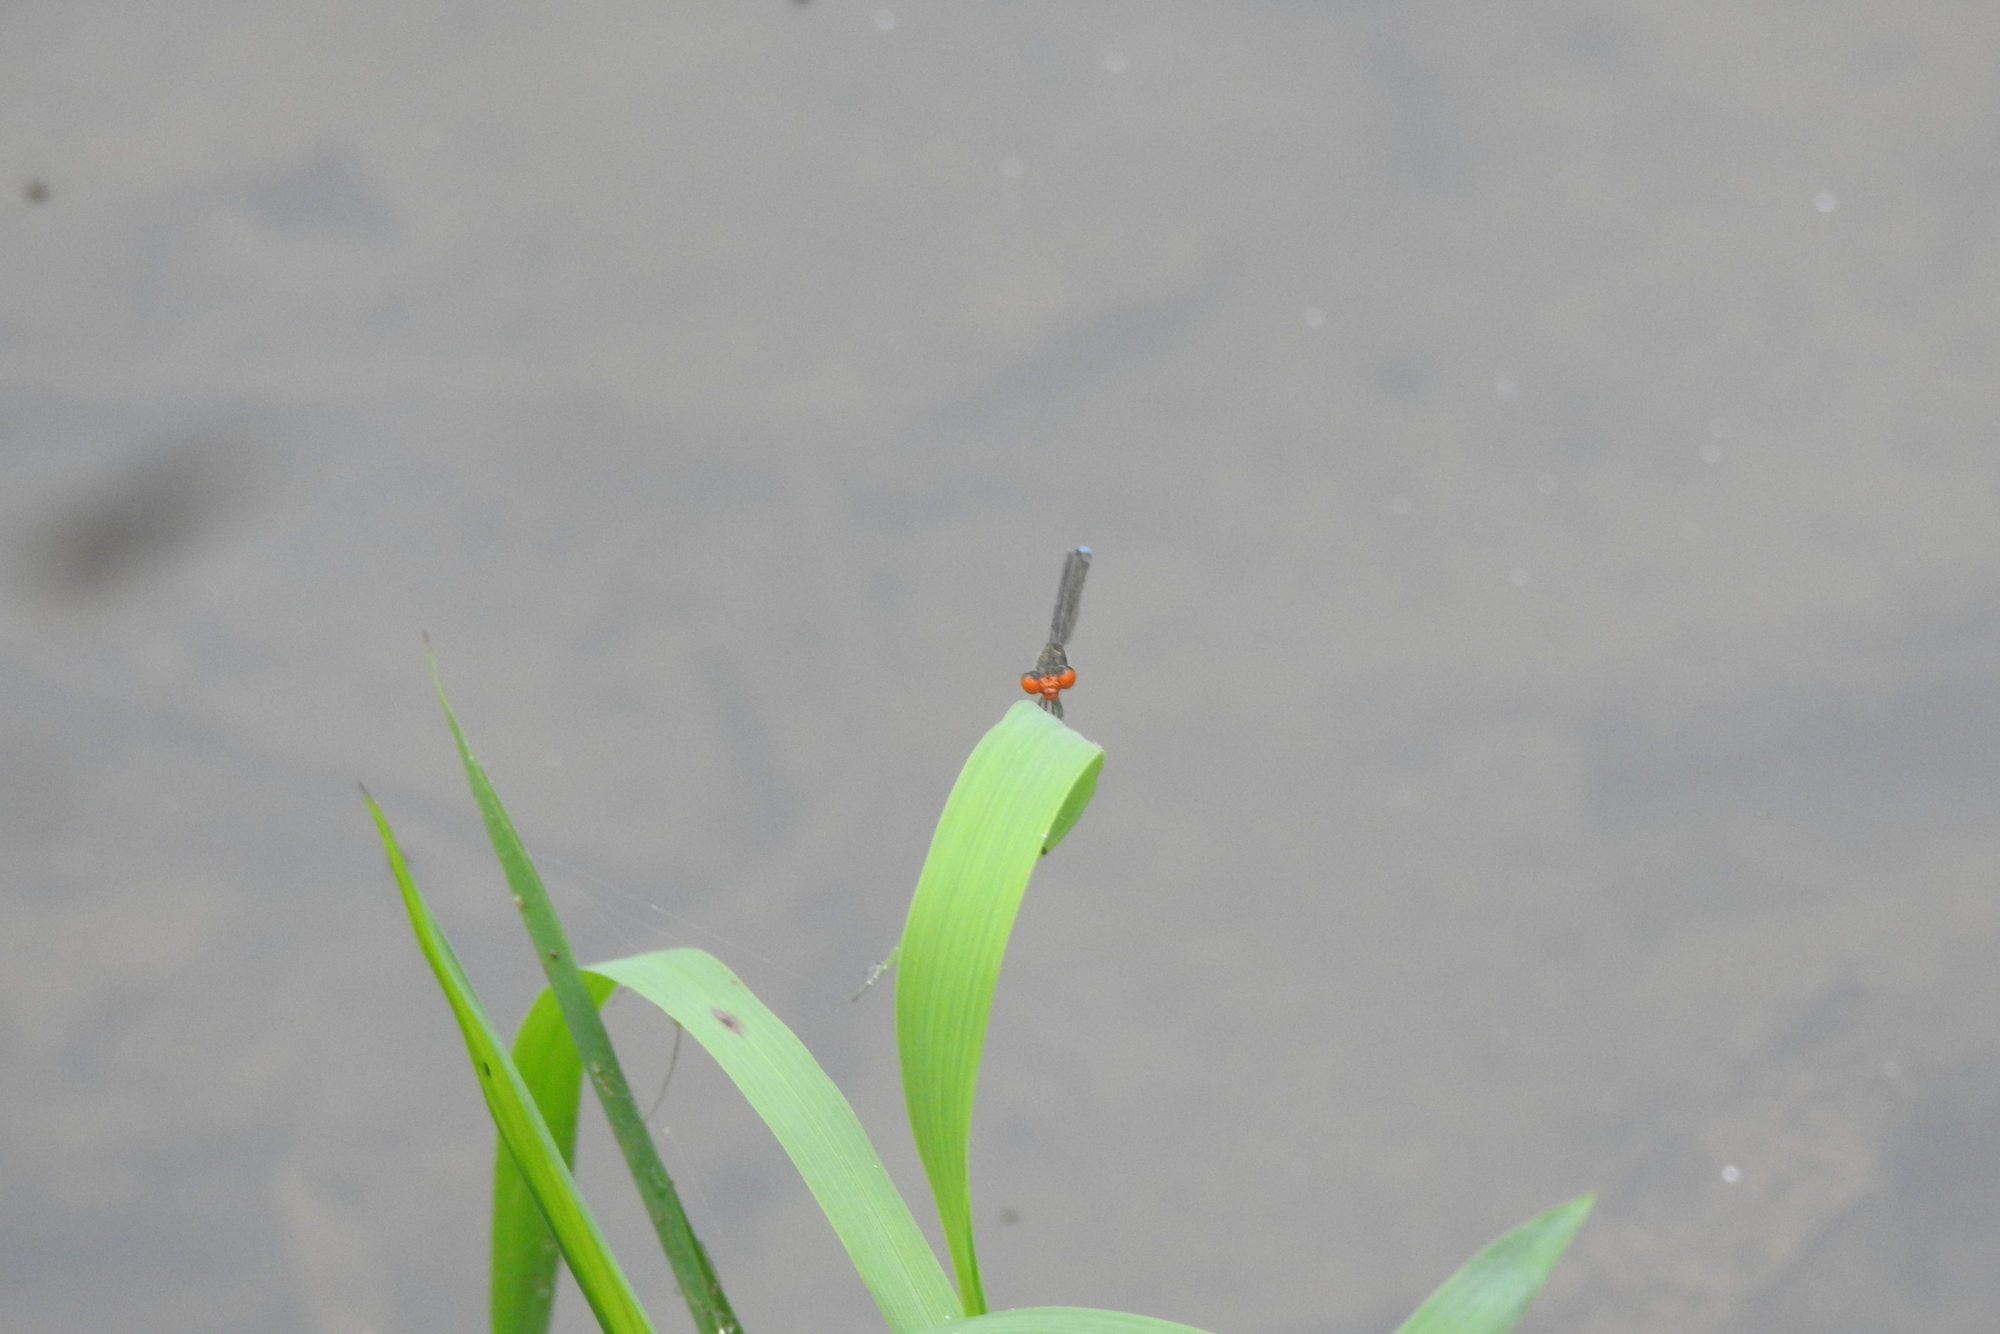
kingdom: Animalia
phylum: Arthropoda
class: Insecta
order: Odonata
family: Coenagrionidae
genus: Pseudagrion
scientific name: Pseudagrion rubriceps
